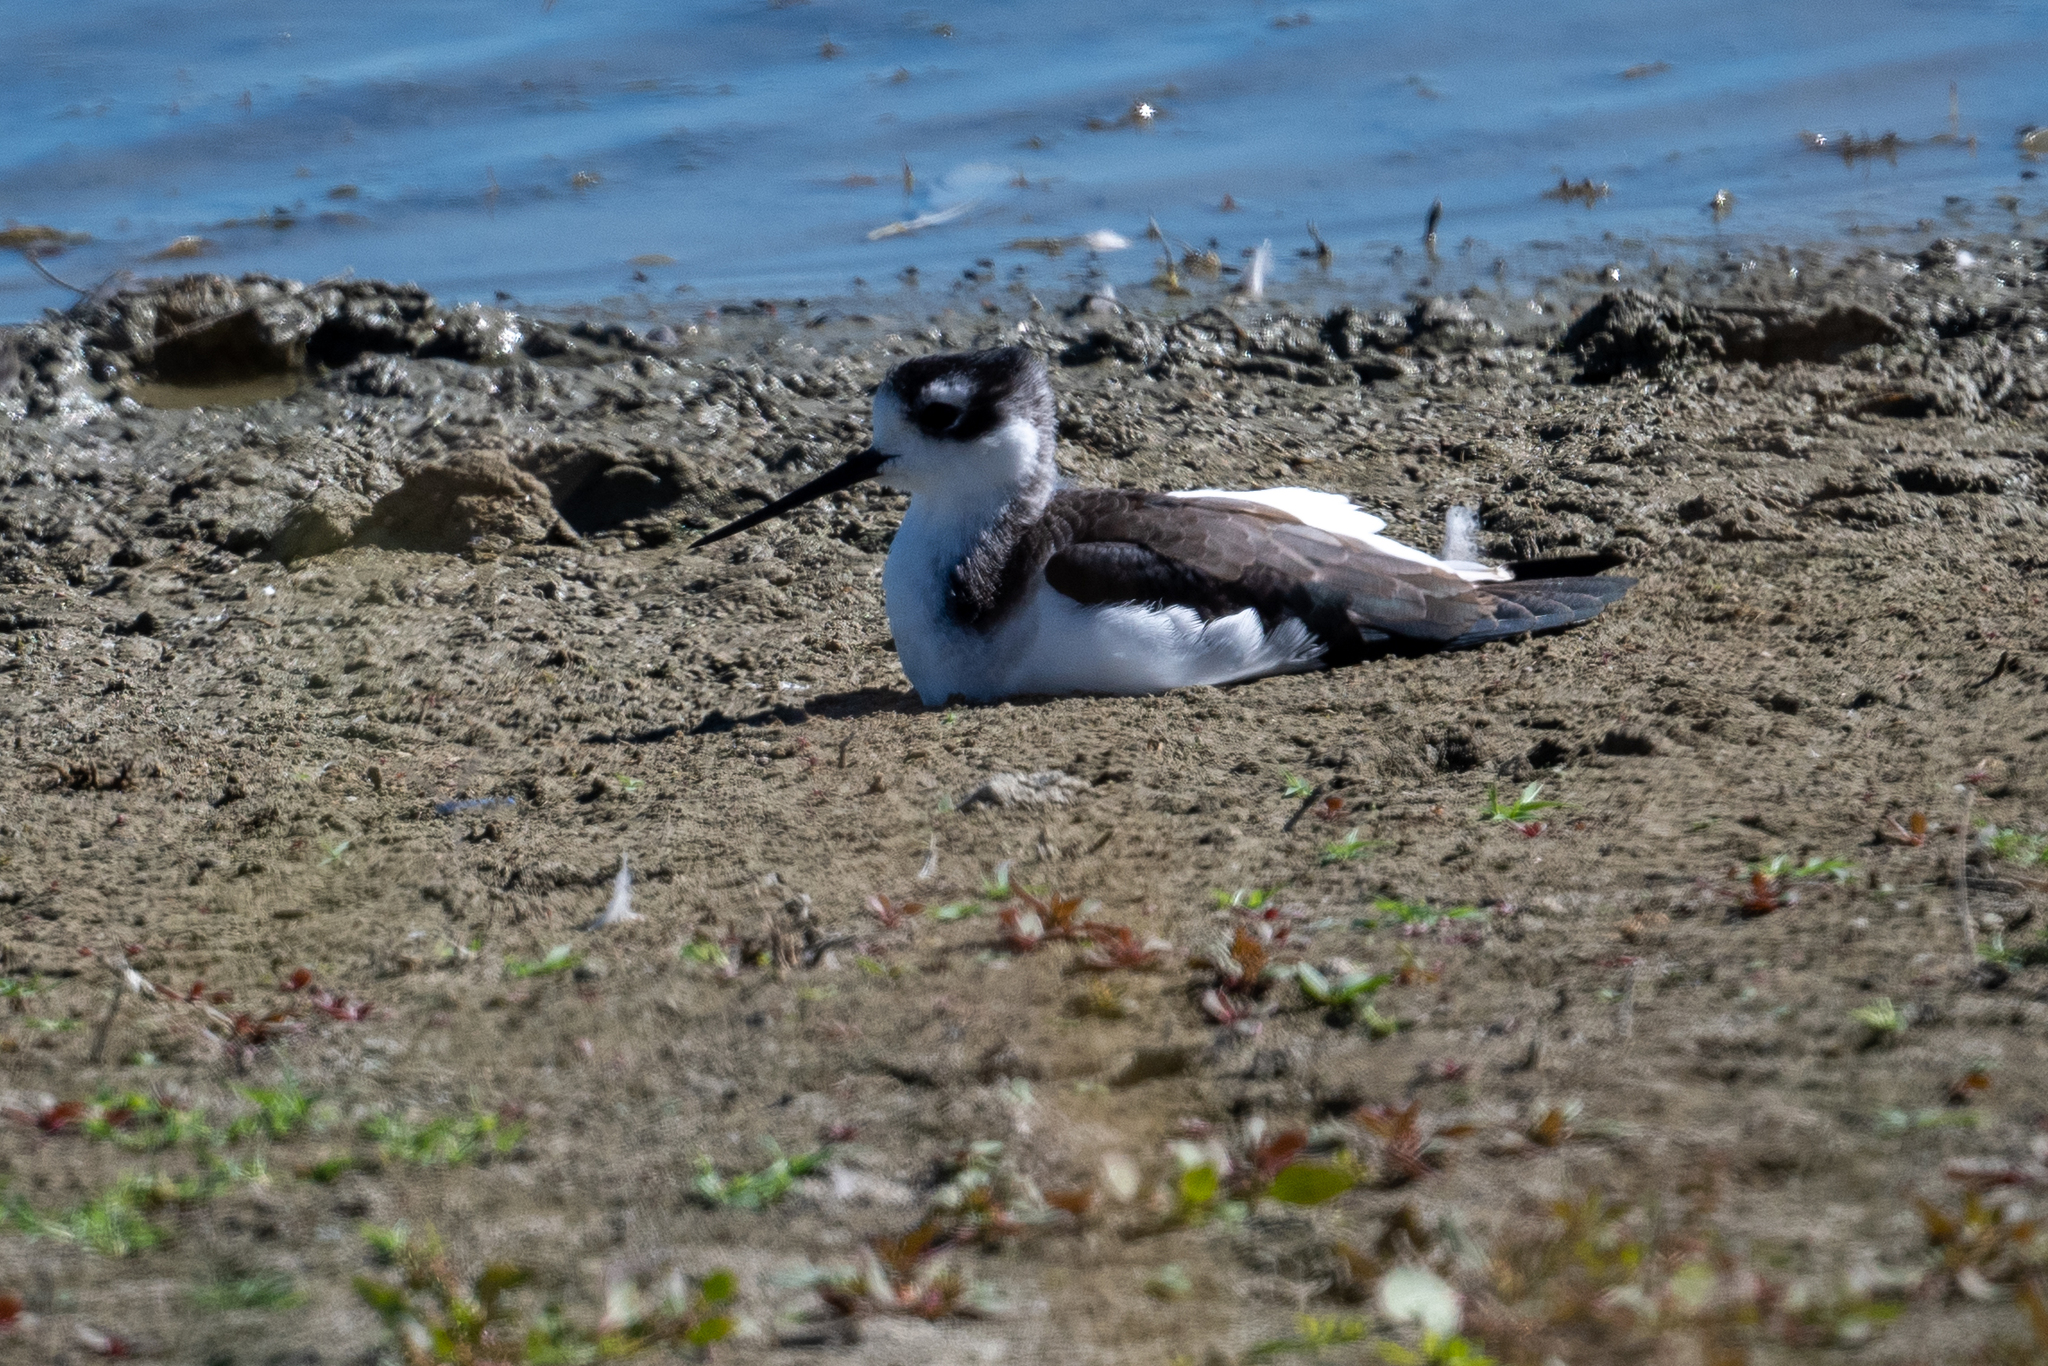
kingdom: Animalia
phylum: Chordata
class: Aves
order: Charadriiformes
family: Recurvirostridae
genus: Himantopus
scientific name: Himantopus mexicanus
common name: Black-necked stilt
